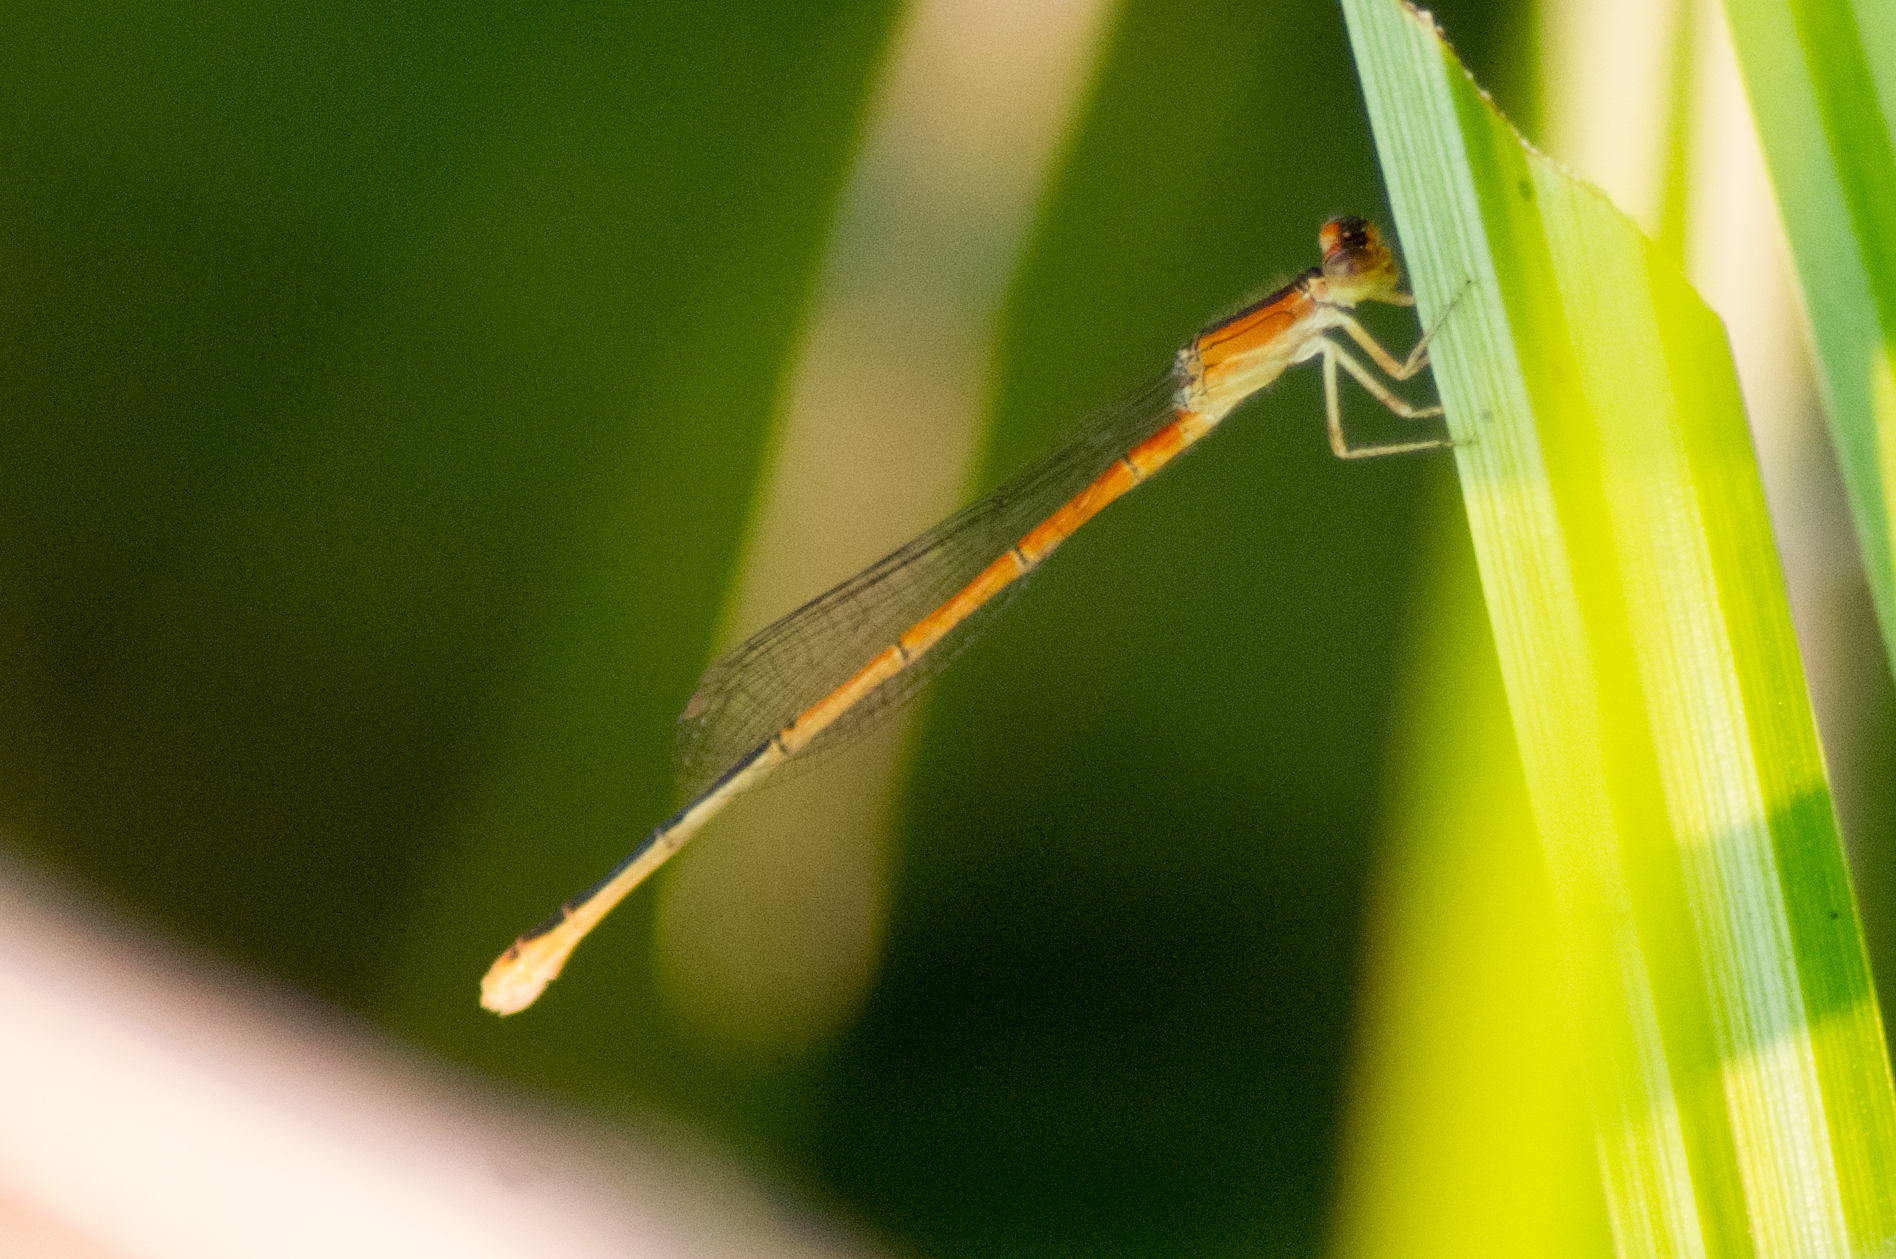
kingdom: Animalia
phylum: Arthropoda
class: Insecta
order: Odonata
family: Coenagrionidae
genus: Ischnura
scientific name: Ischnura hastata
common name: Citrine forktail
